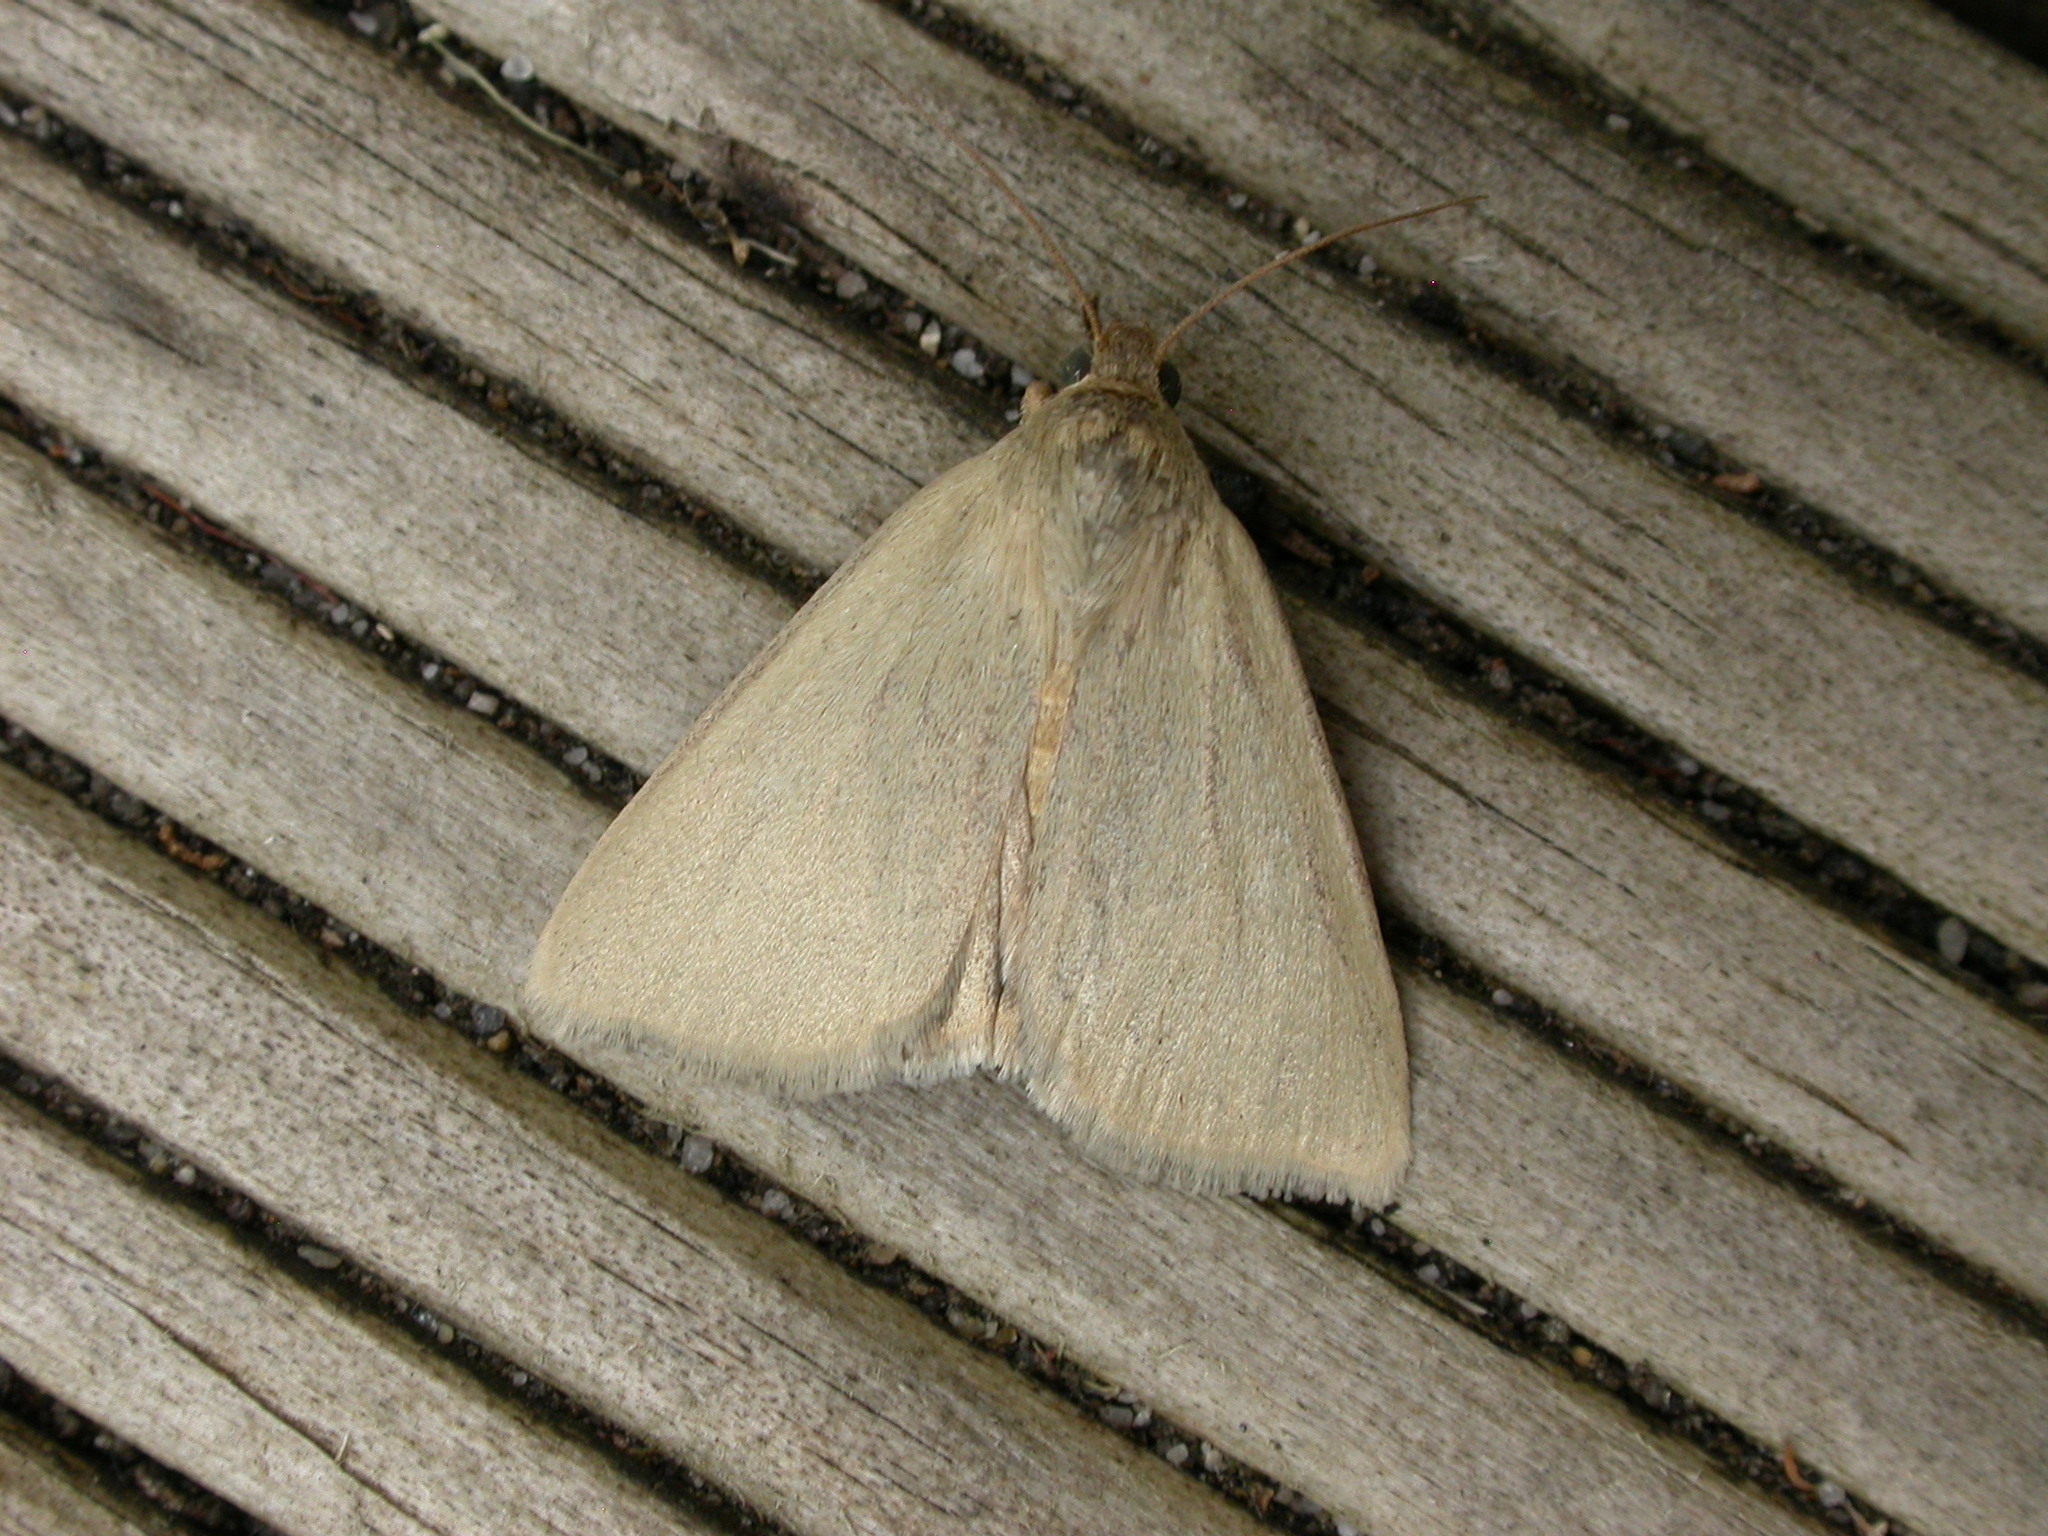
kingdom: Animalia
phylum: Arthropoda
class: Insecta
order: Lepidoptera
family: Noctuidae
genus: Heliocheilus
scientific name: Heliocheilus moribunda
